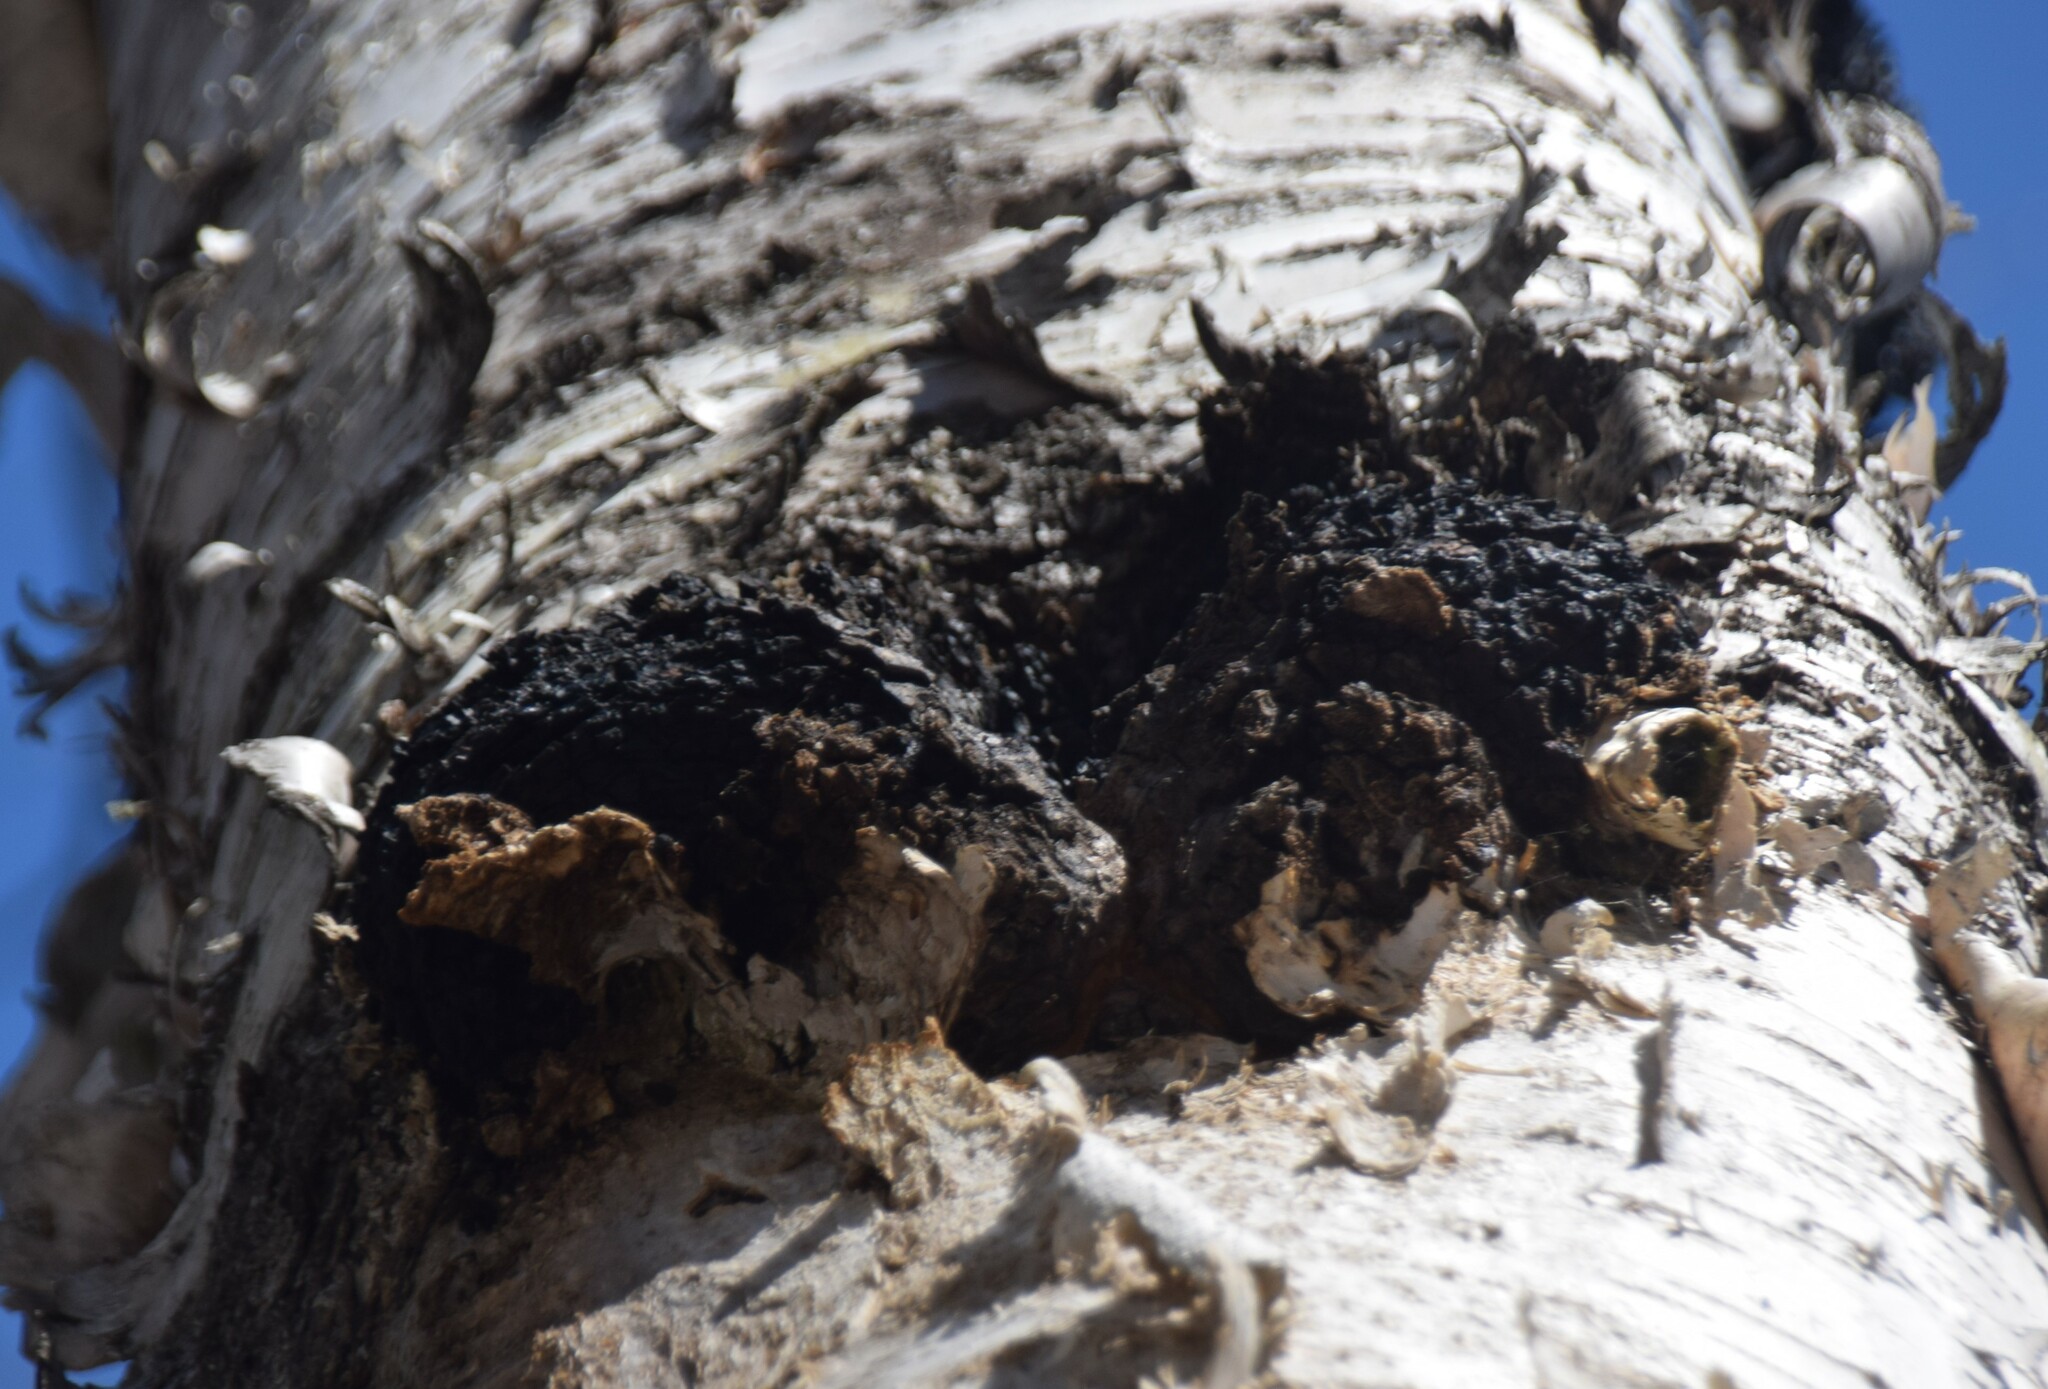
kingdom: Fungi
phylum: Basidiomycota
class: Agaricomycetes
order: Hymenochaetales
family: Hymenochaetaceae
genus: Inonotus
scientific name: Inonotus obliquus
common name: Chaga
